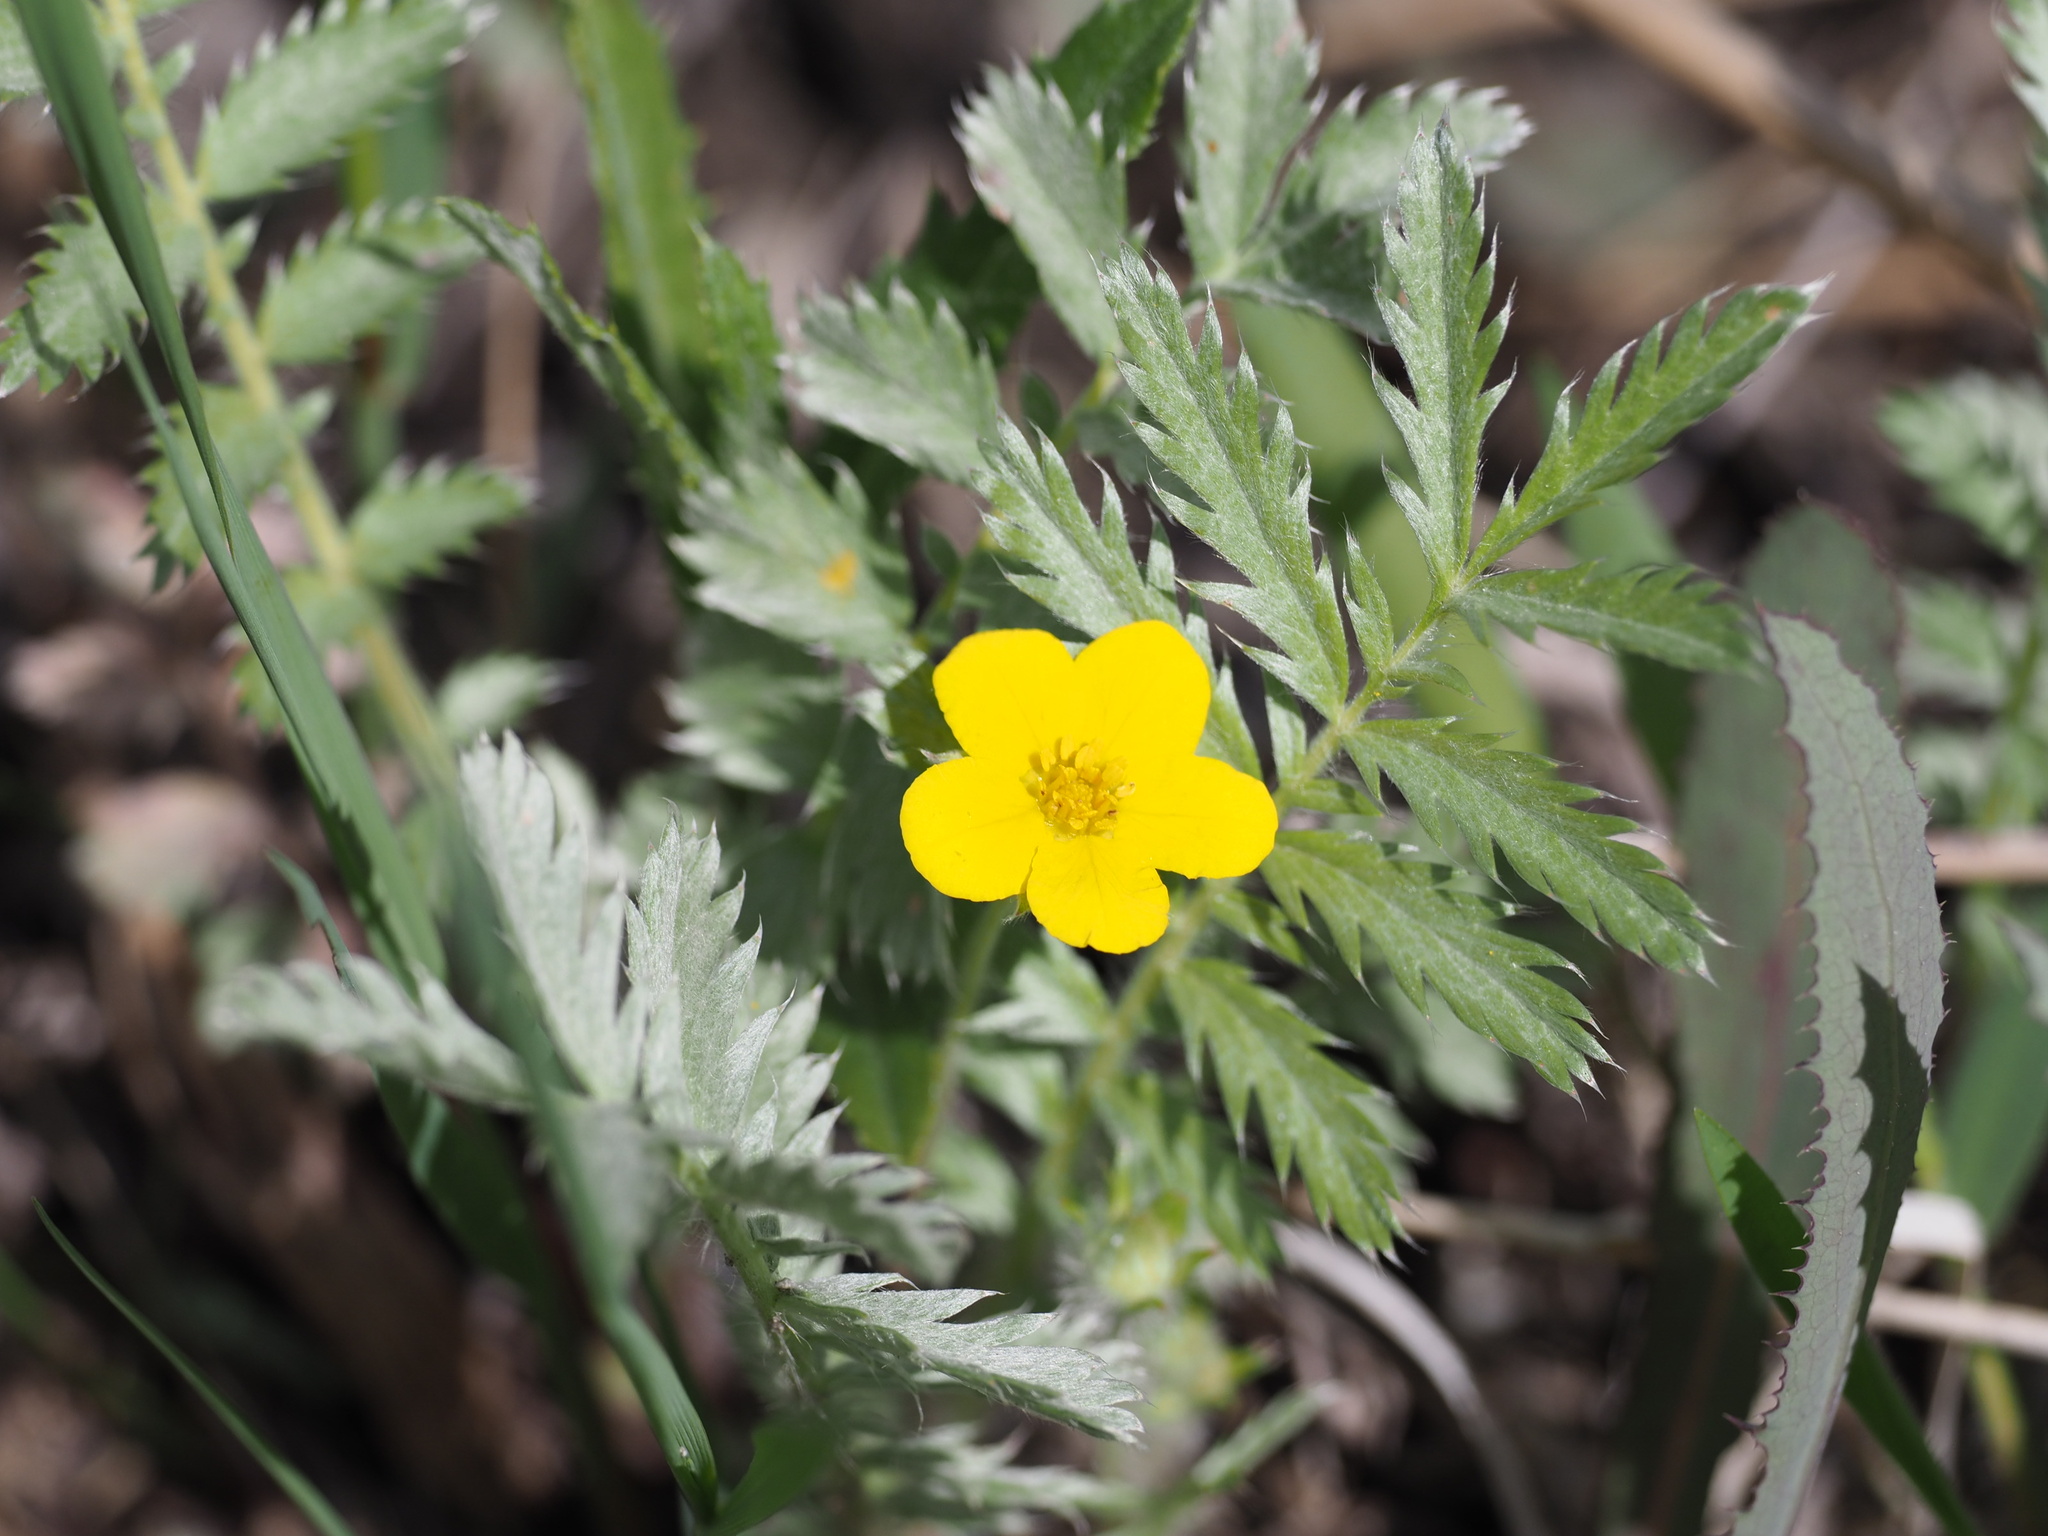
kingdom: Plantae
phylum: Tracheophyta
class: Magnoliopsida
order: Rosales
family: Rosaceae
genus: Argentina
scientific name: Argentina anserina
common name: Common silverweed
